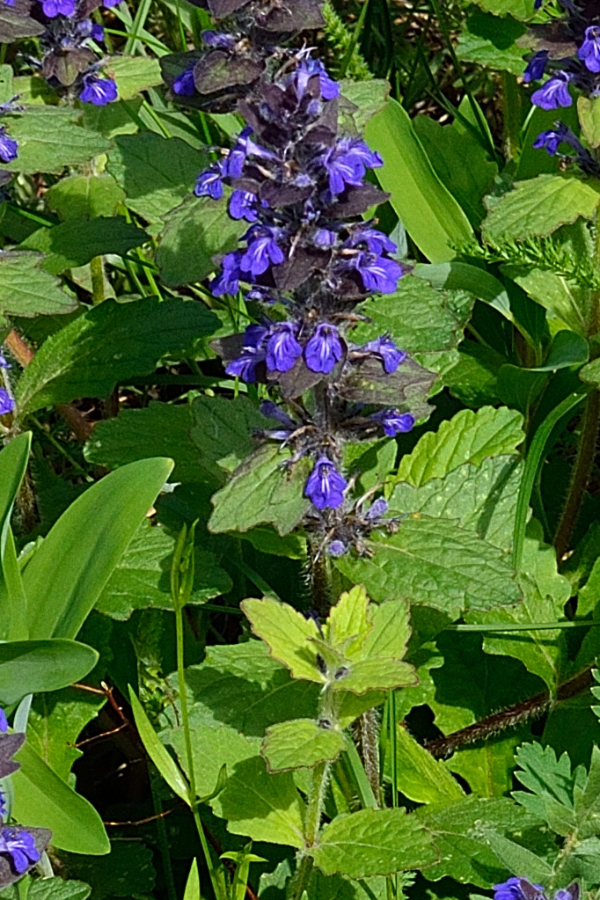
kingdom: Plantae
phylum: Tracheophyta
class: Magnoliopsida
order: Lamiales
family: Lamiaceae
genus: Ajuga
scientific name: Ajuga genevensis
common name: Blue bugle
